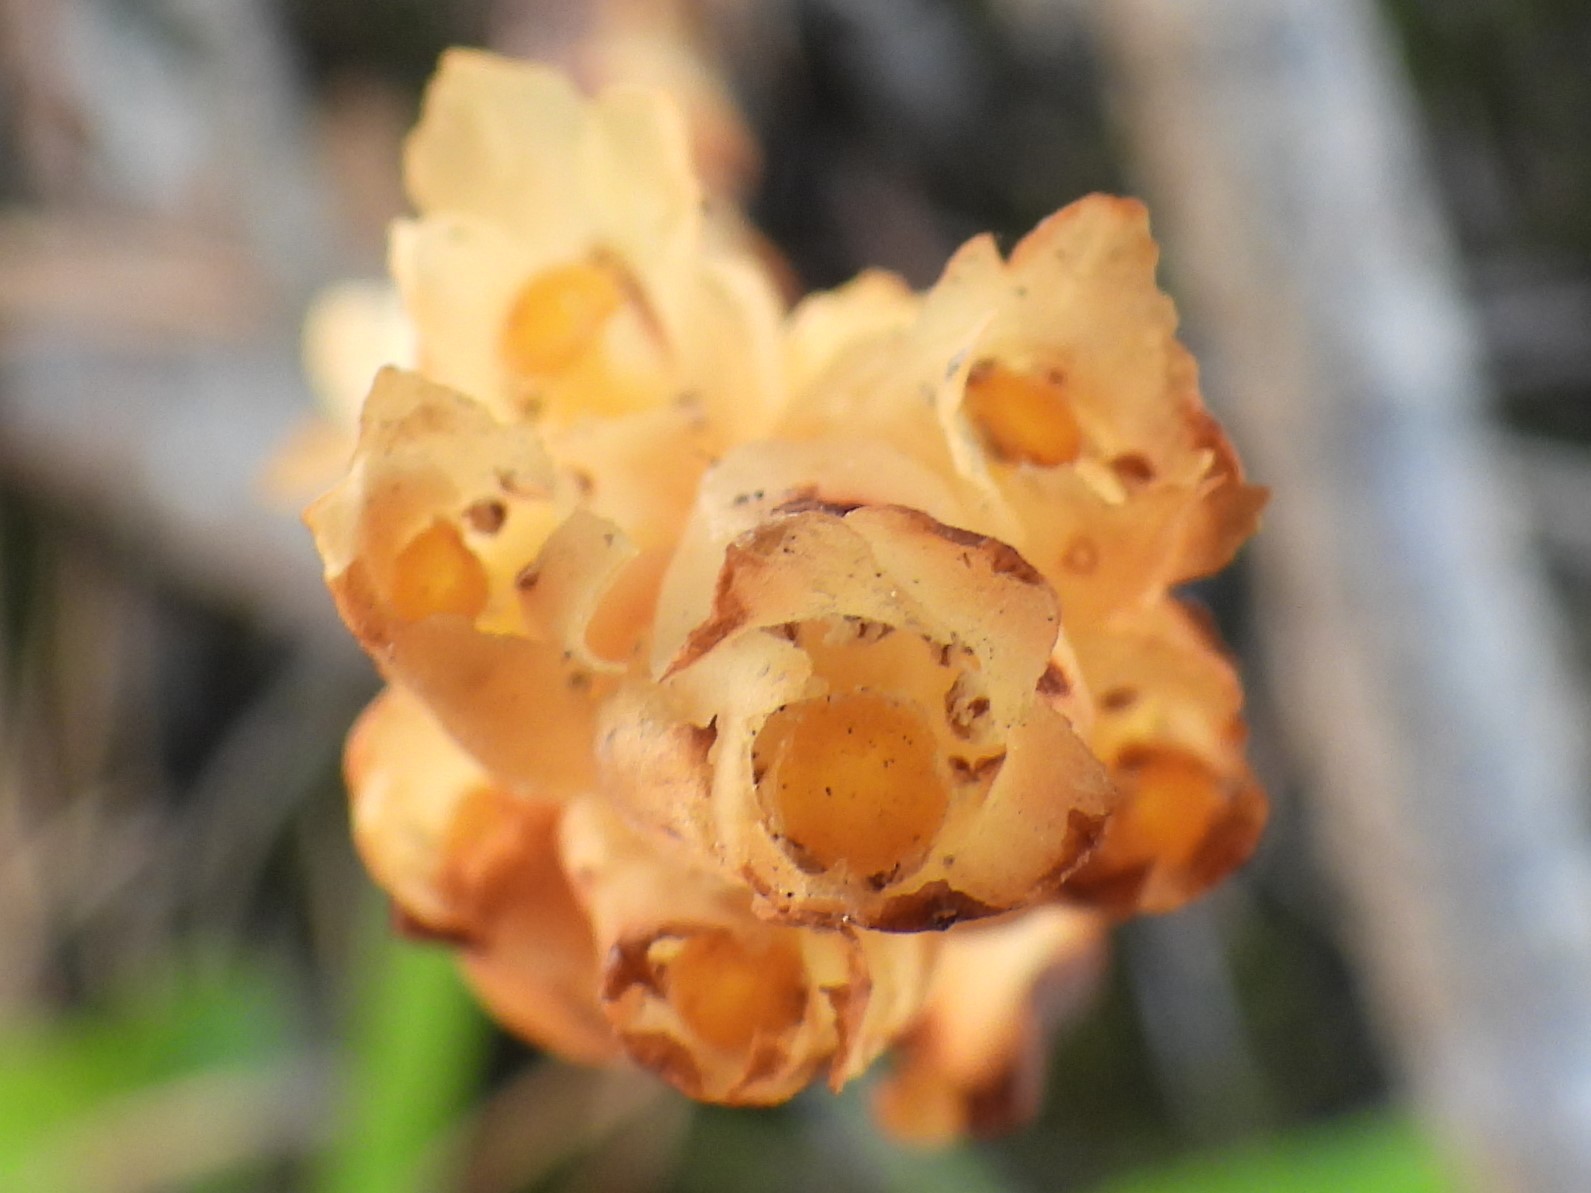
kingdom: Plantae
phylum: Tracheophyta
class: Magnoliopsida
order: Ericales
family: Ericaceae
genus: Hypopitys
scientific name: Hypopitys hypophegea
